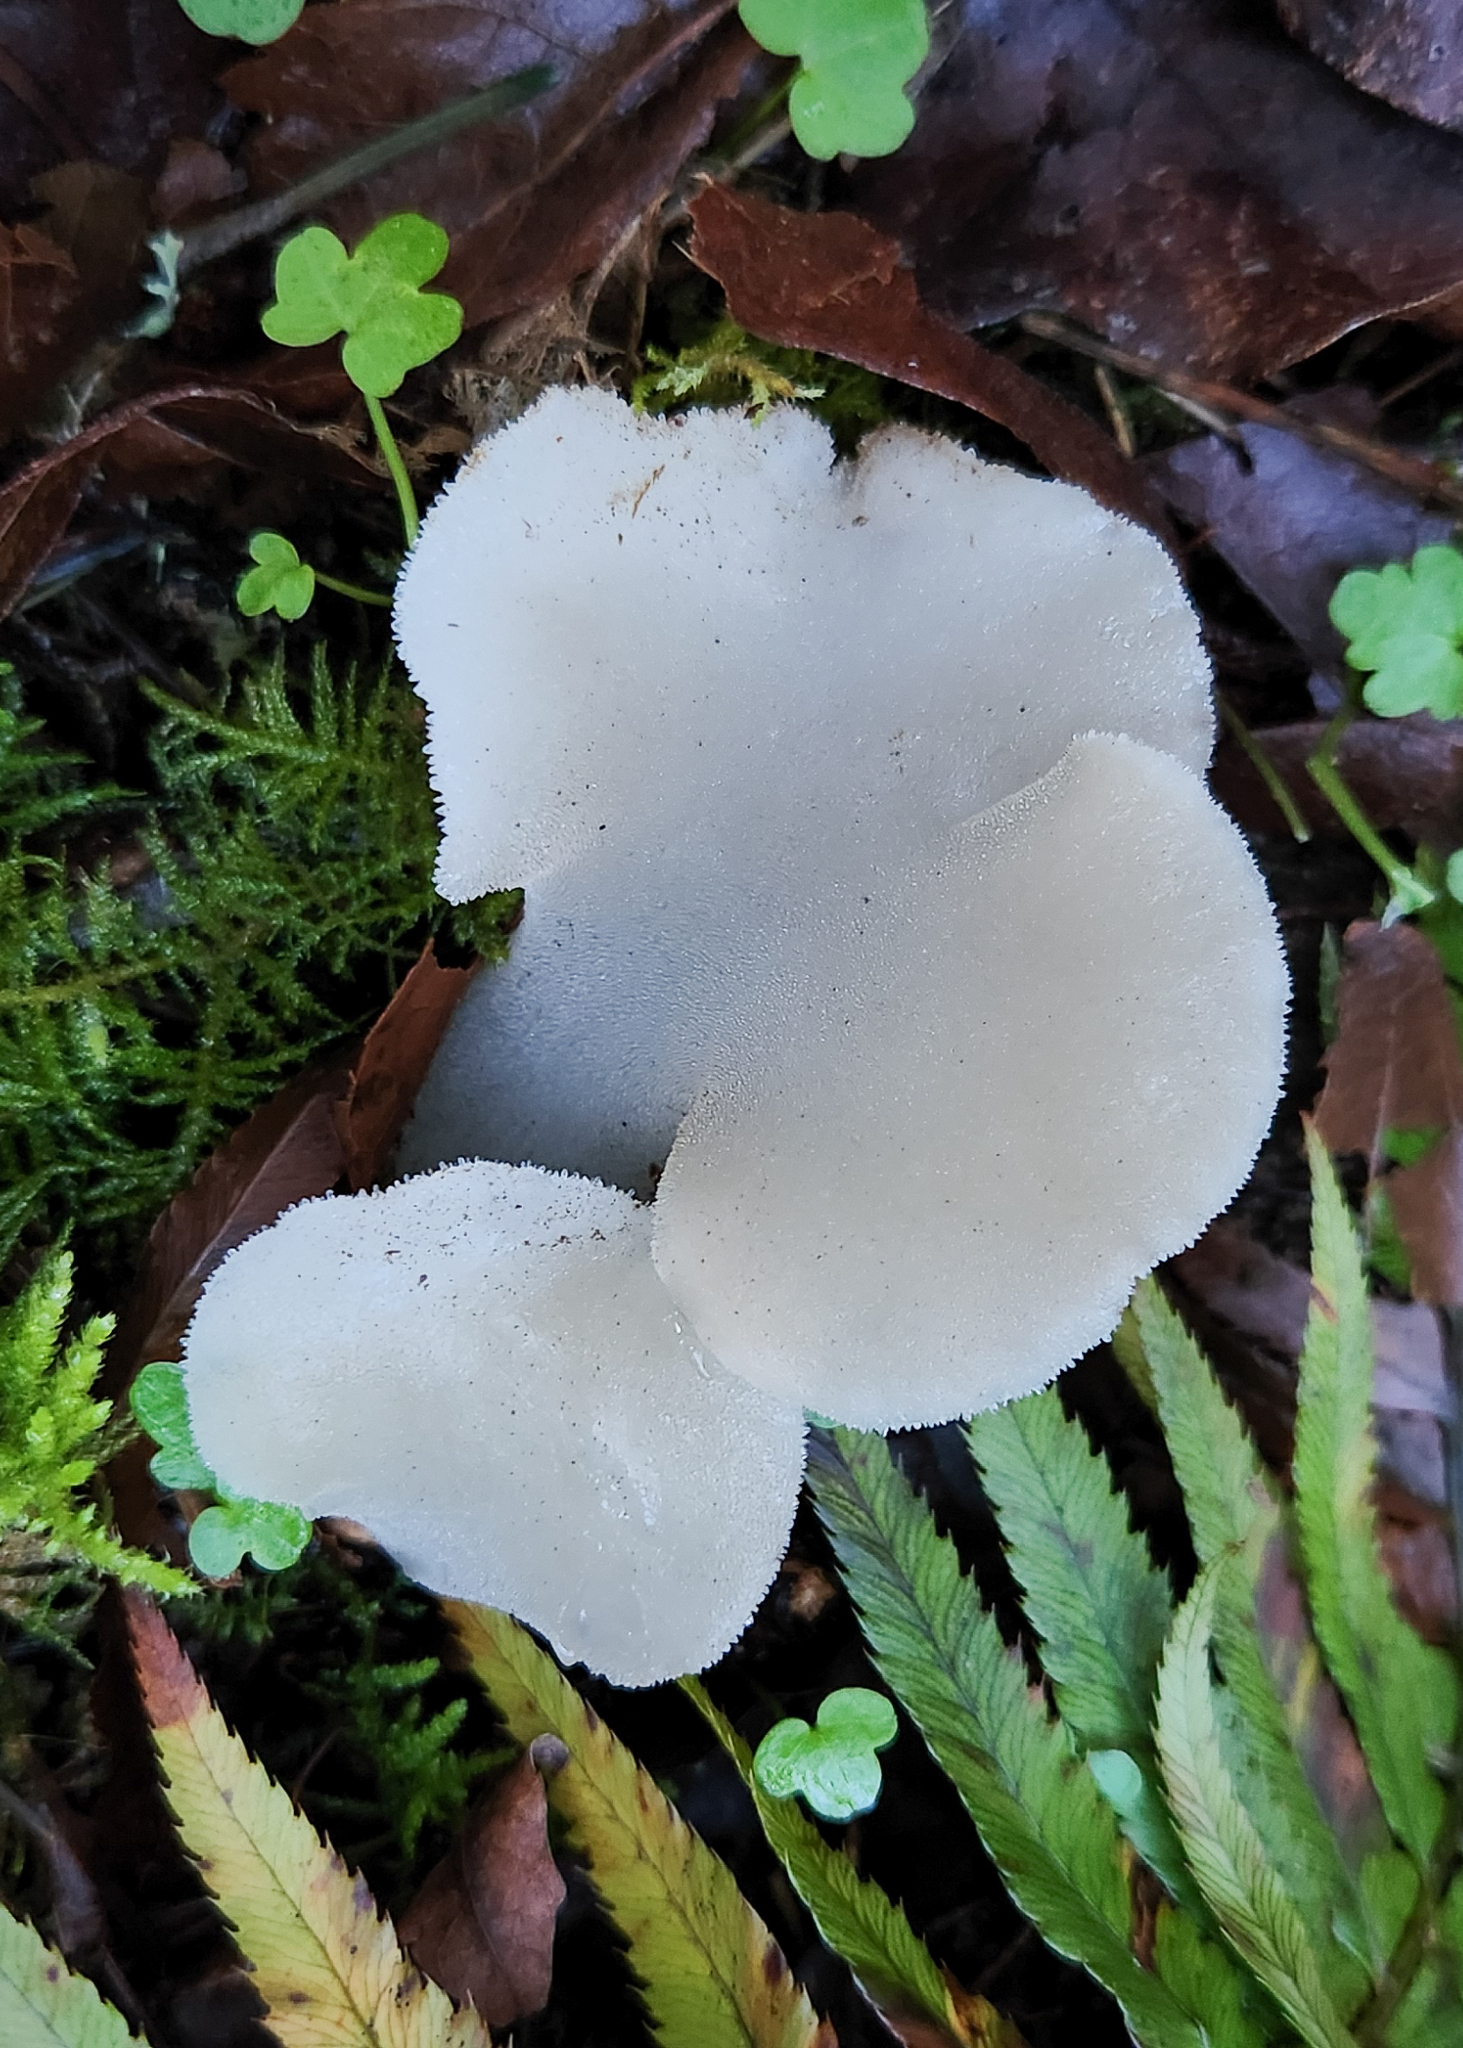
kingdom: Fungi
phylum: Basidiomycota
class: Agaricomycetes
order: Auriculariales
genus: Pseudohydnum
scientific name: Pseudohydnum gelatinosum
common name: Jelly tongue
